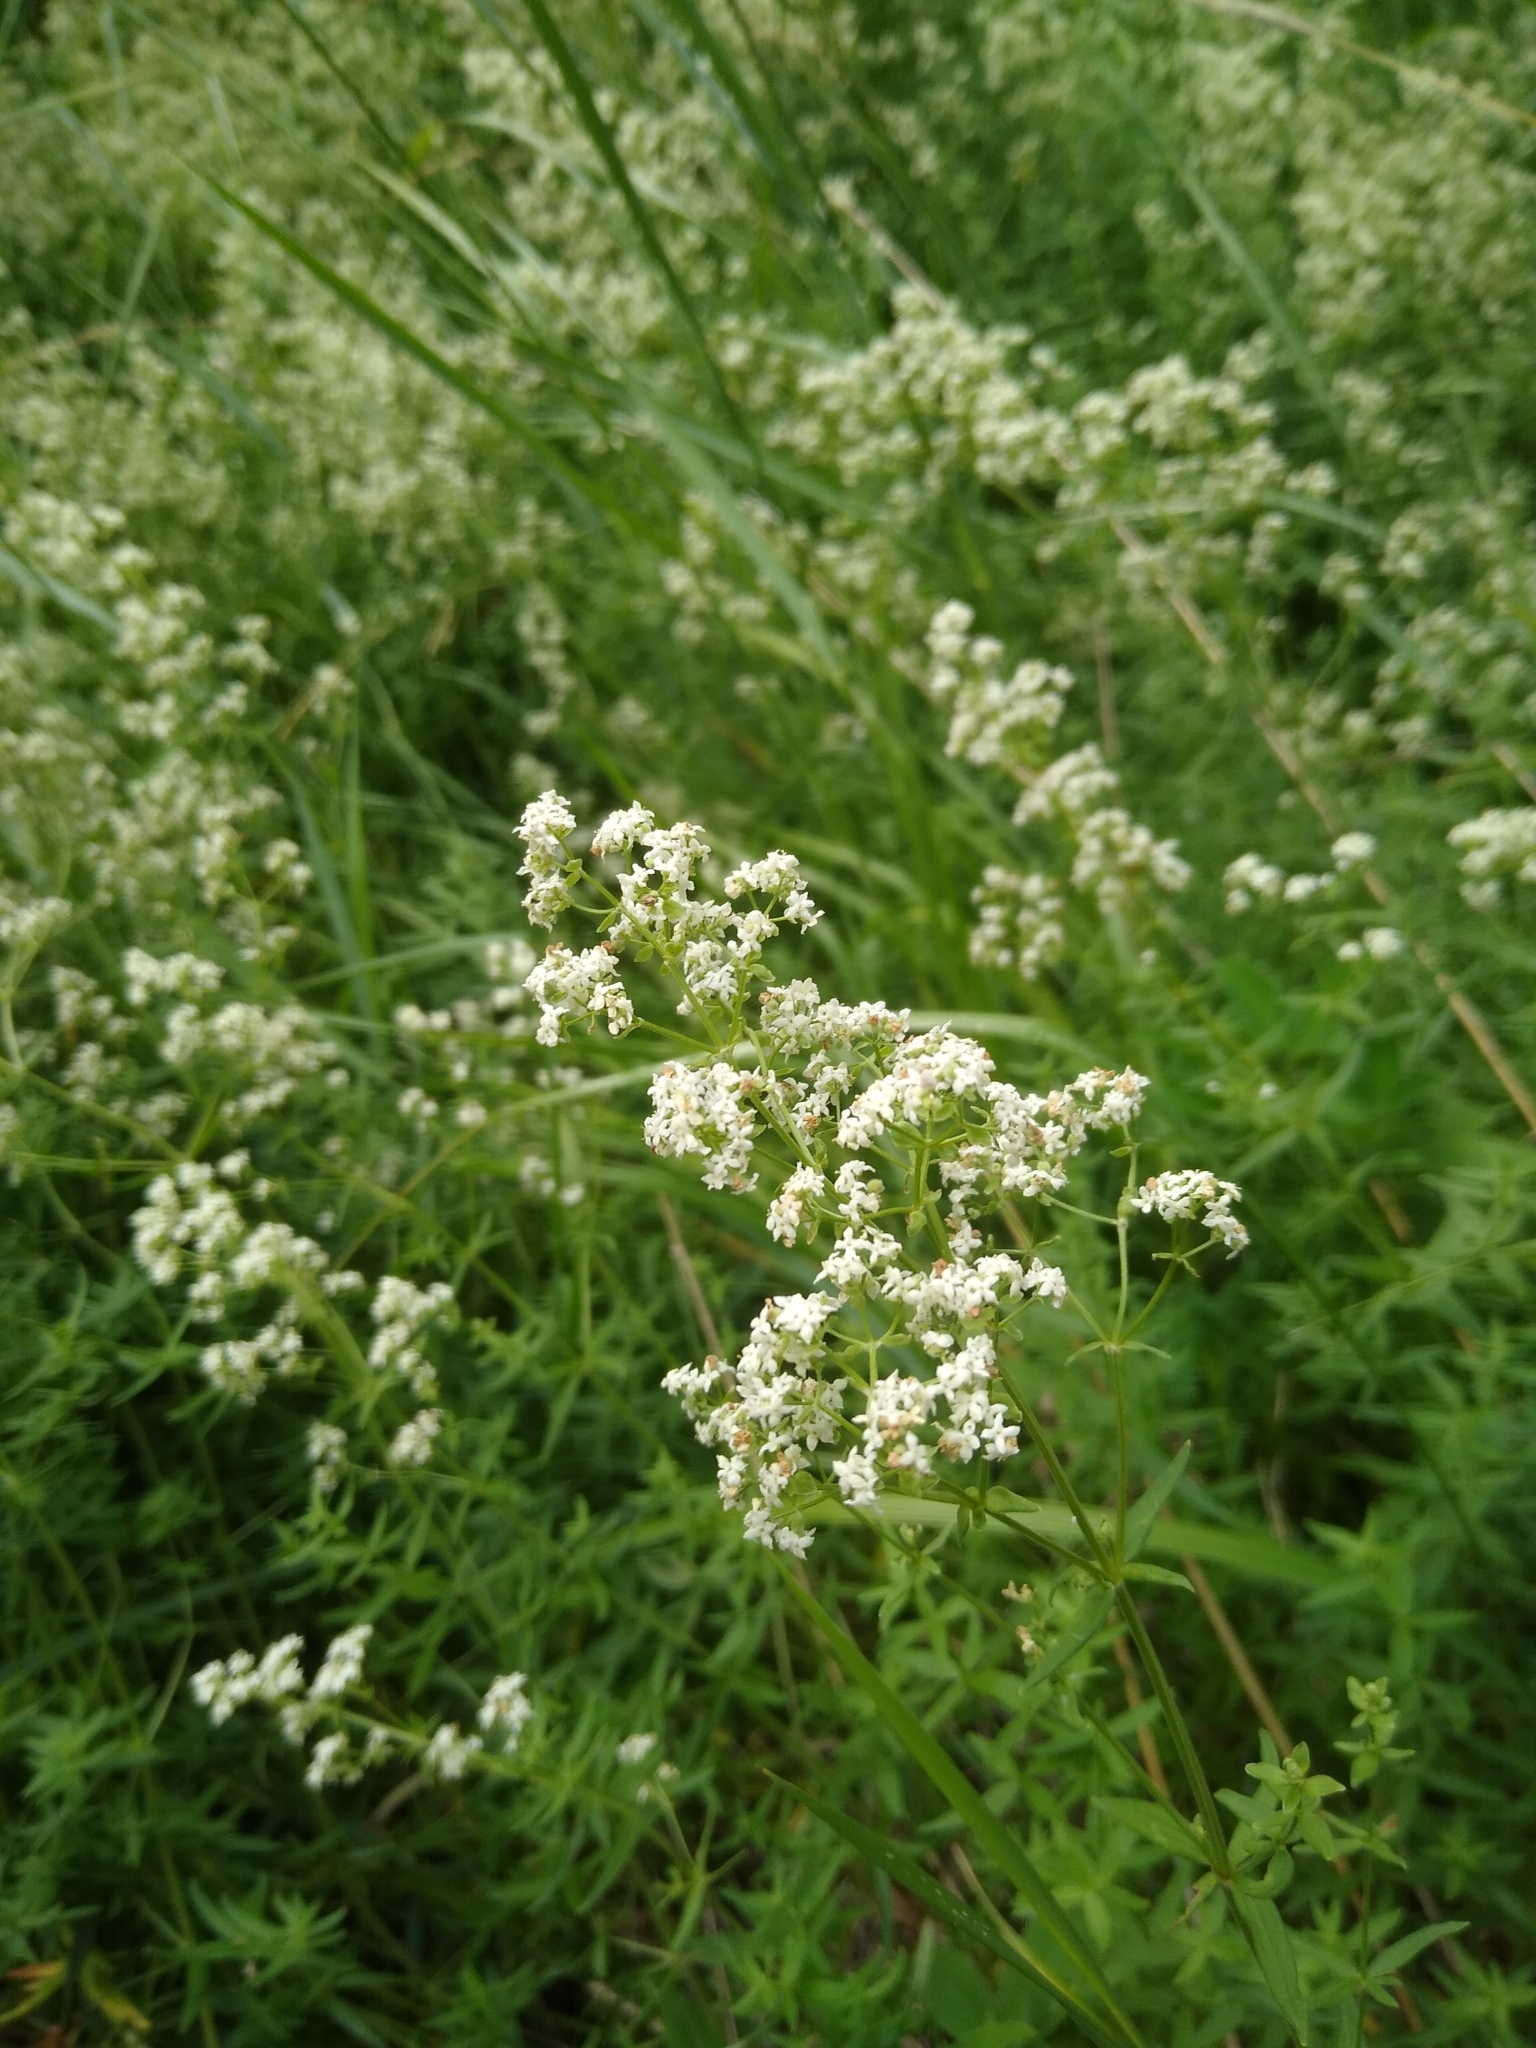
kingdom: Plantae
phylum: Tracheophyta
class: Magnoliopsida
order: Gentianales
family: Rubiaceae
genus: Galium
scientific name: Galium boreale
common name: Northern bedstraw
